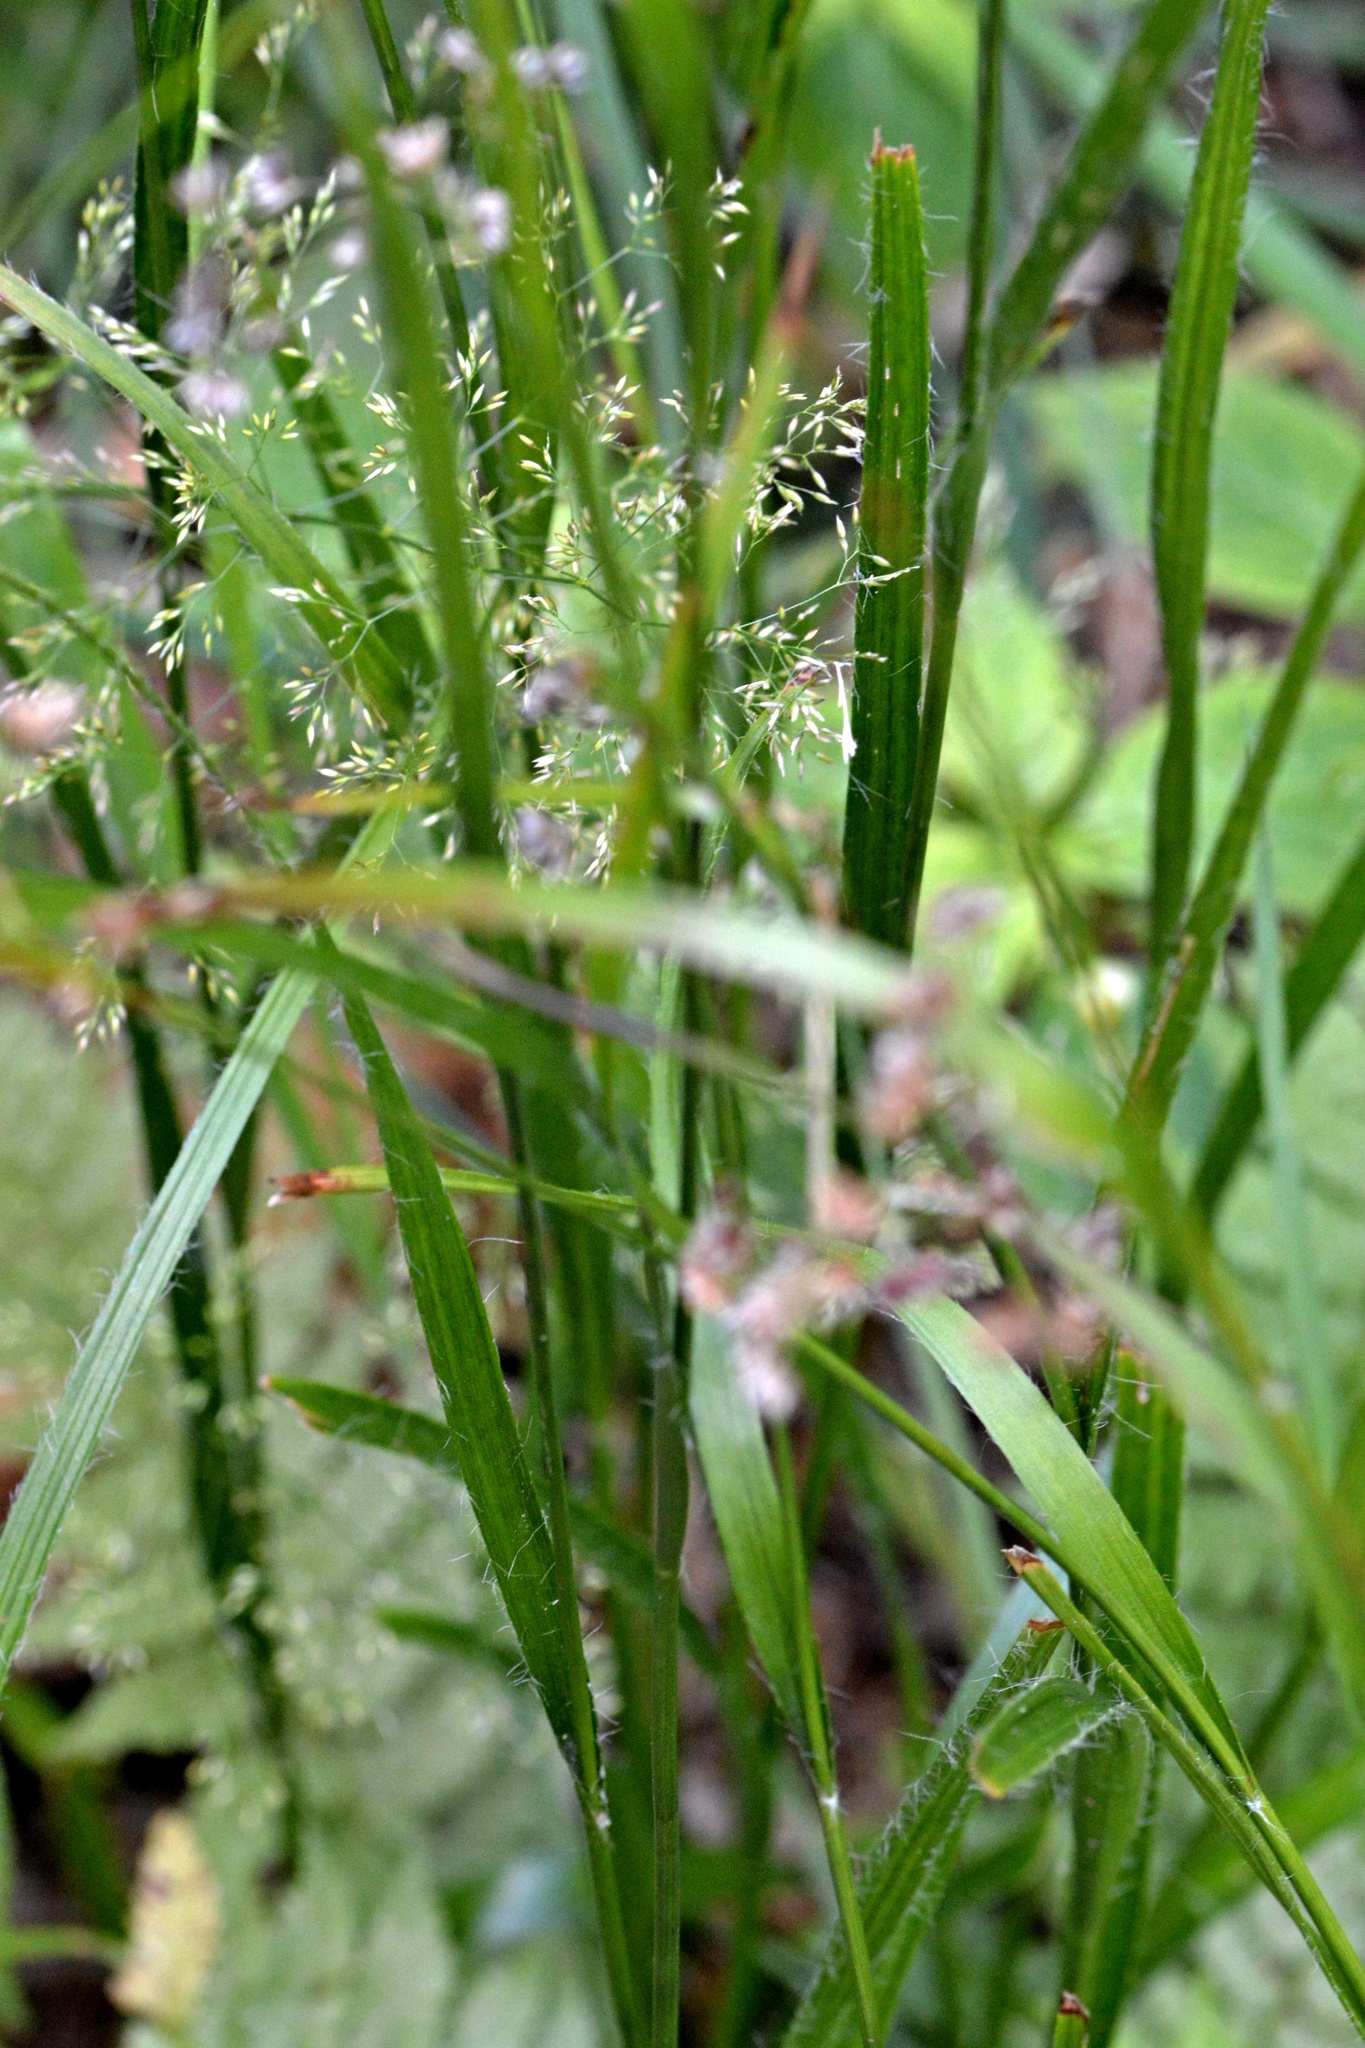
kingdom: Plantae
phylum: Tracheophyta
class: Liliopsida
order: Poales
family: Juncaceae
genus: Luzula
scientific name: Luzula luzuloides
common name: White wood-rush
